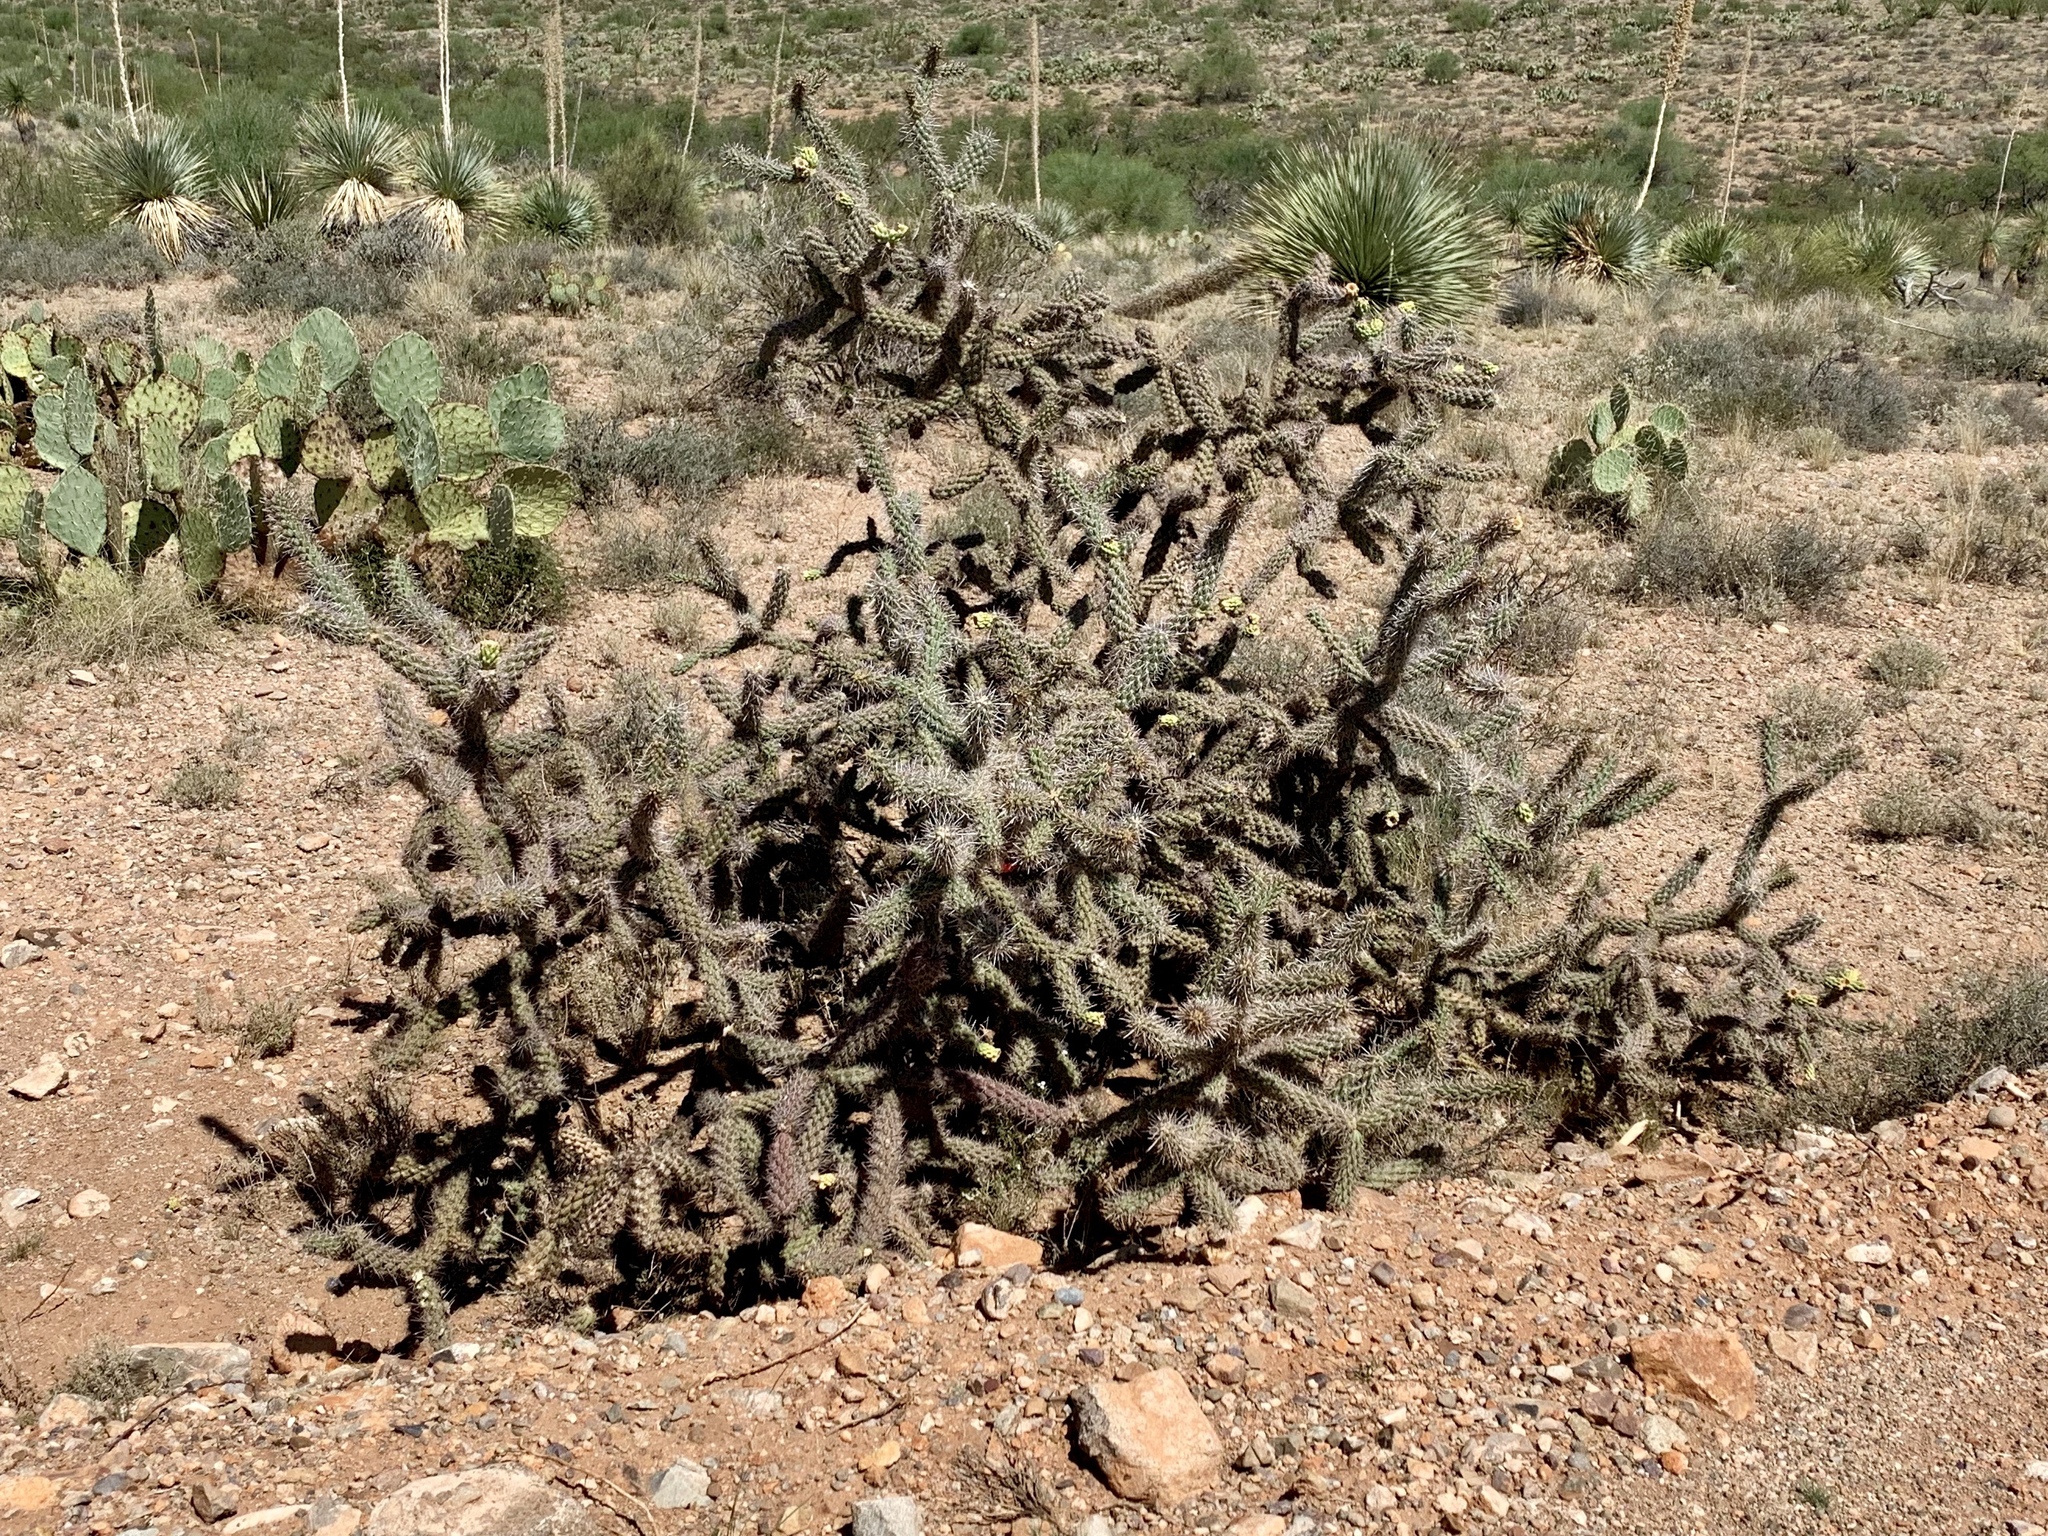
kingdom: Plantae
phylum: Tracheophyta
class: Magnoliopsida
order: Caryophyllales
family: Cactaceae
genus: Cylindropuntia
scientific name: Cylindropuntia imbricata
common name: Candelabrum cactus
